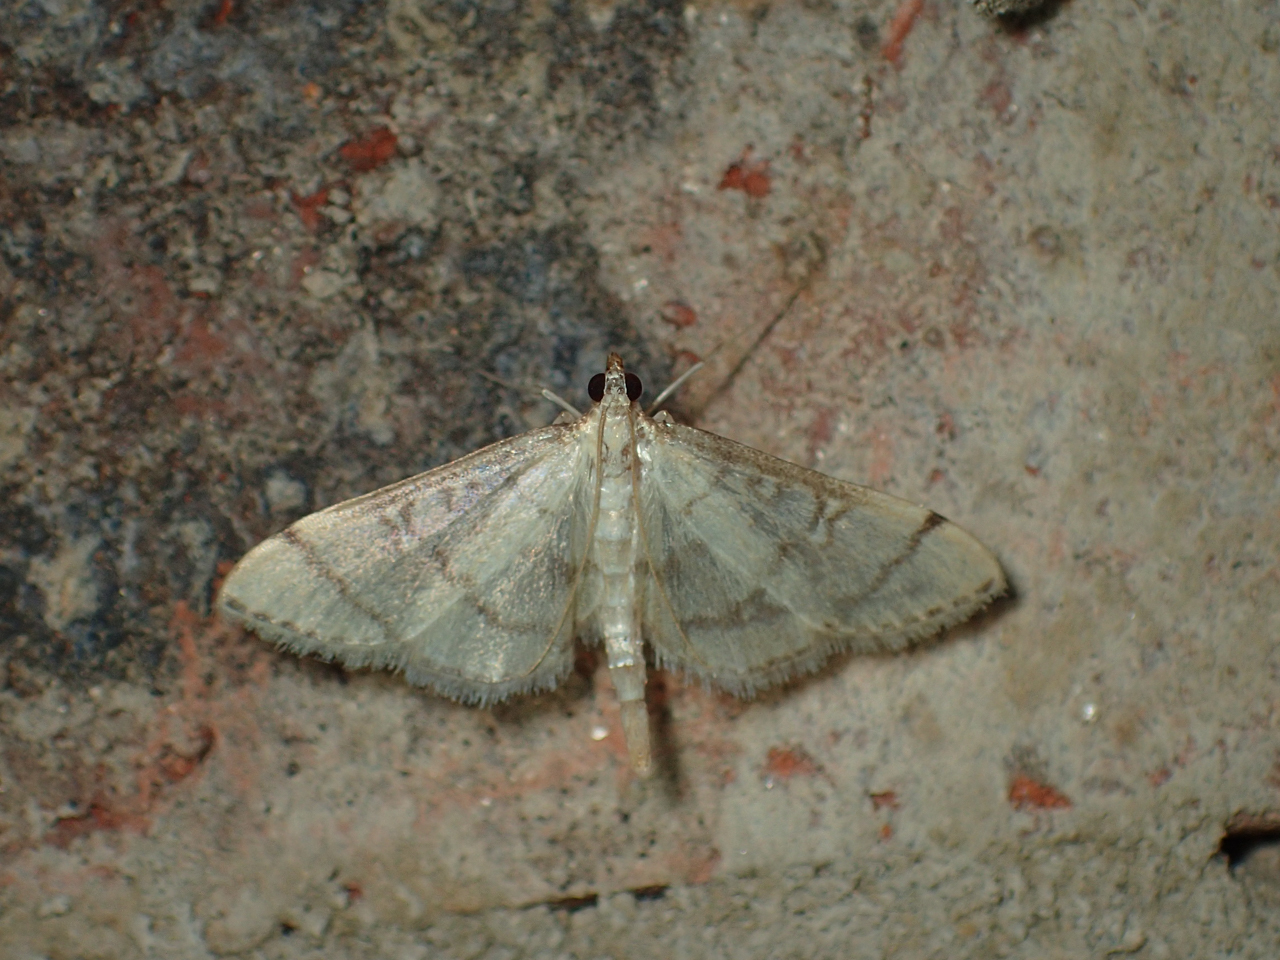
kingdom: Animalia
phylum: Arthropoda
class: Insecta
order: Lepidoptera
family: Crambidae
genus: Lamprosema
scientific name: Lamprosema Blepharomastix ranalis
